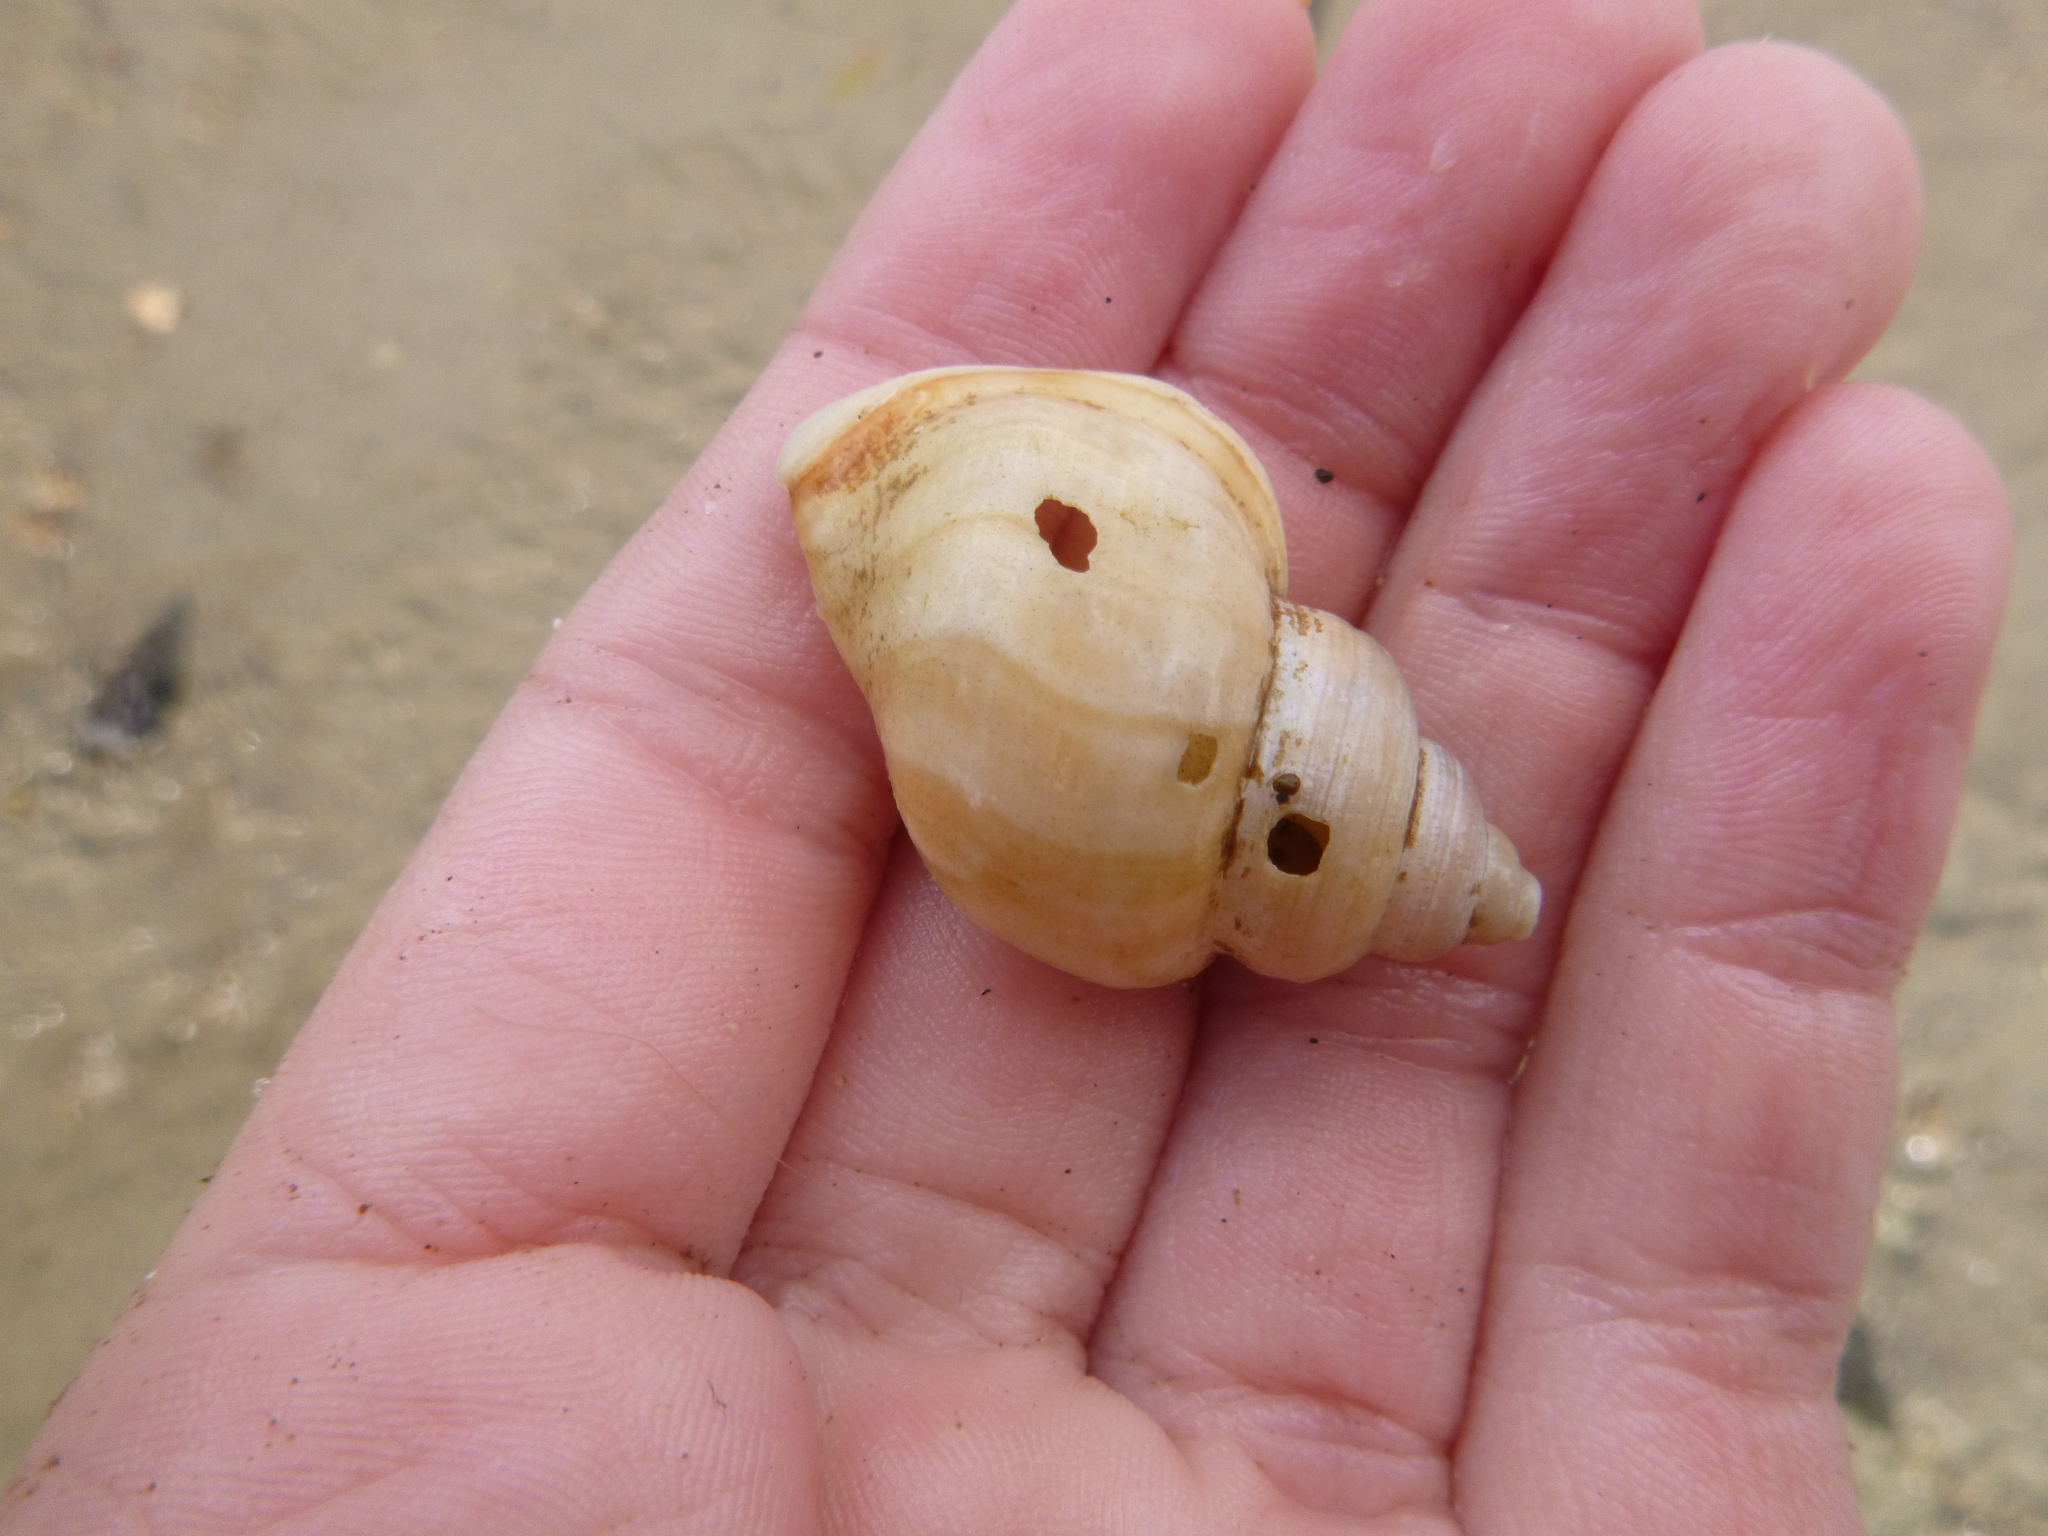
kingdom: Animalia
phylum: Mollusca
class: Gastropoda
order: Littorinimorpha
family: Struthiolariidae
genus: Pelicaria
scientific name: Pelicaria vermis
